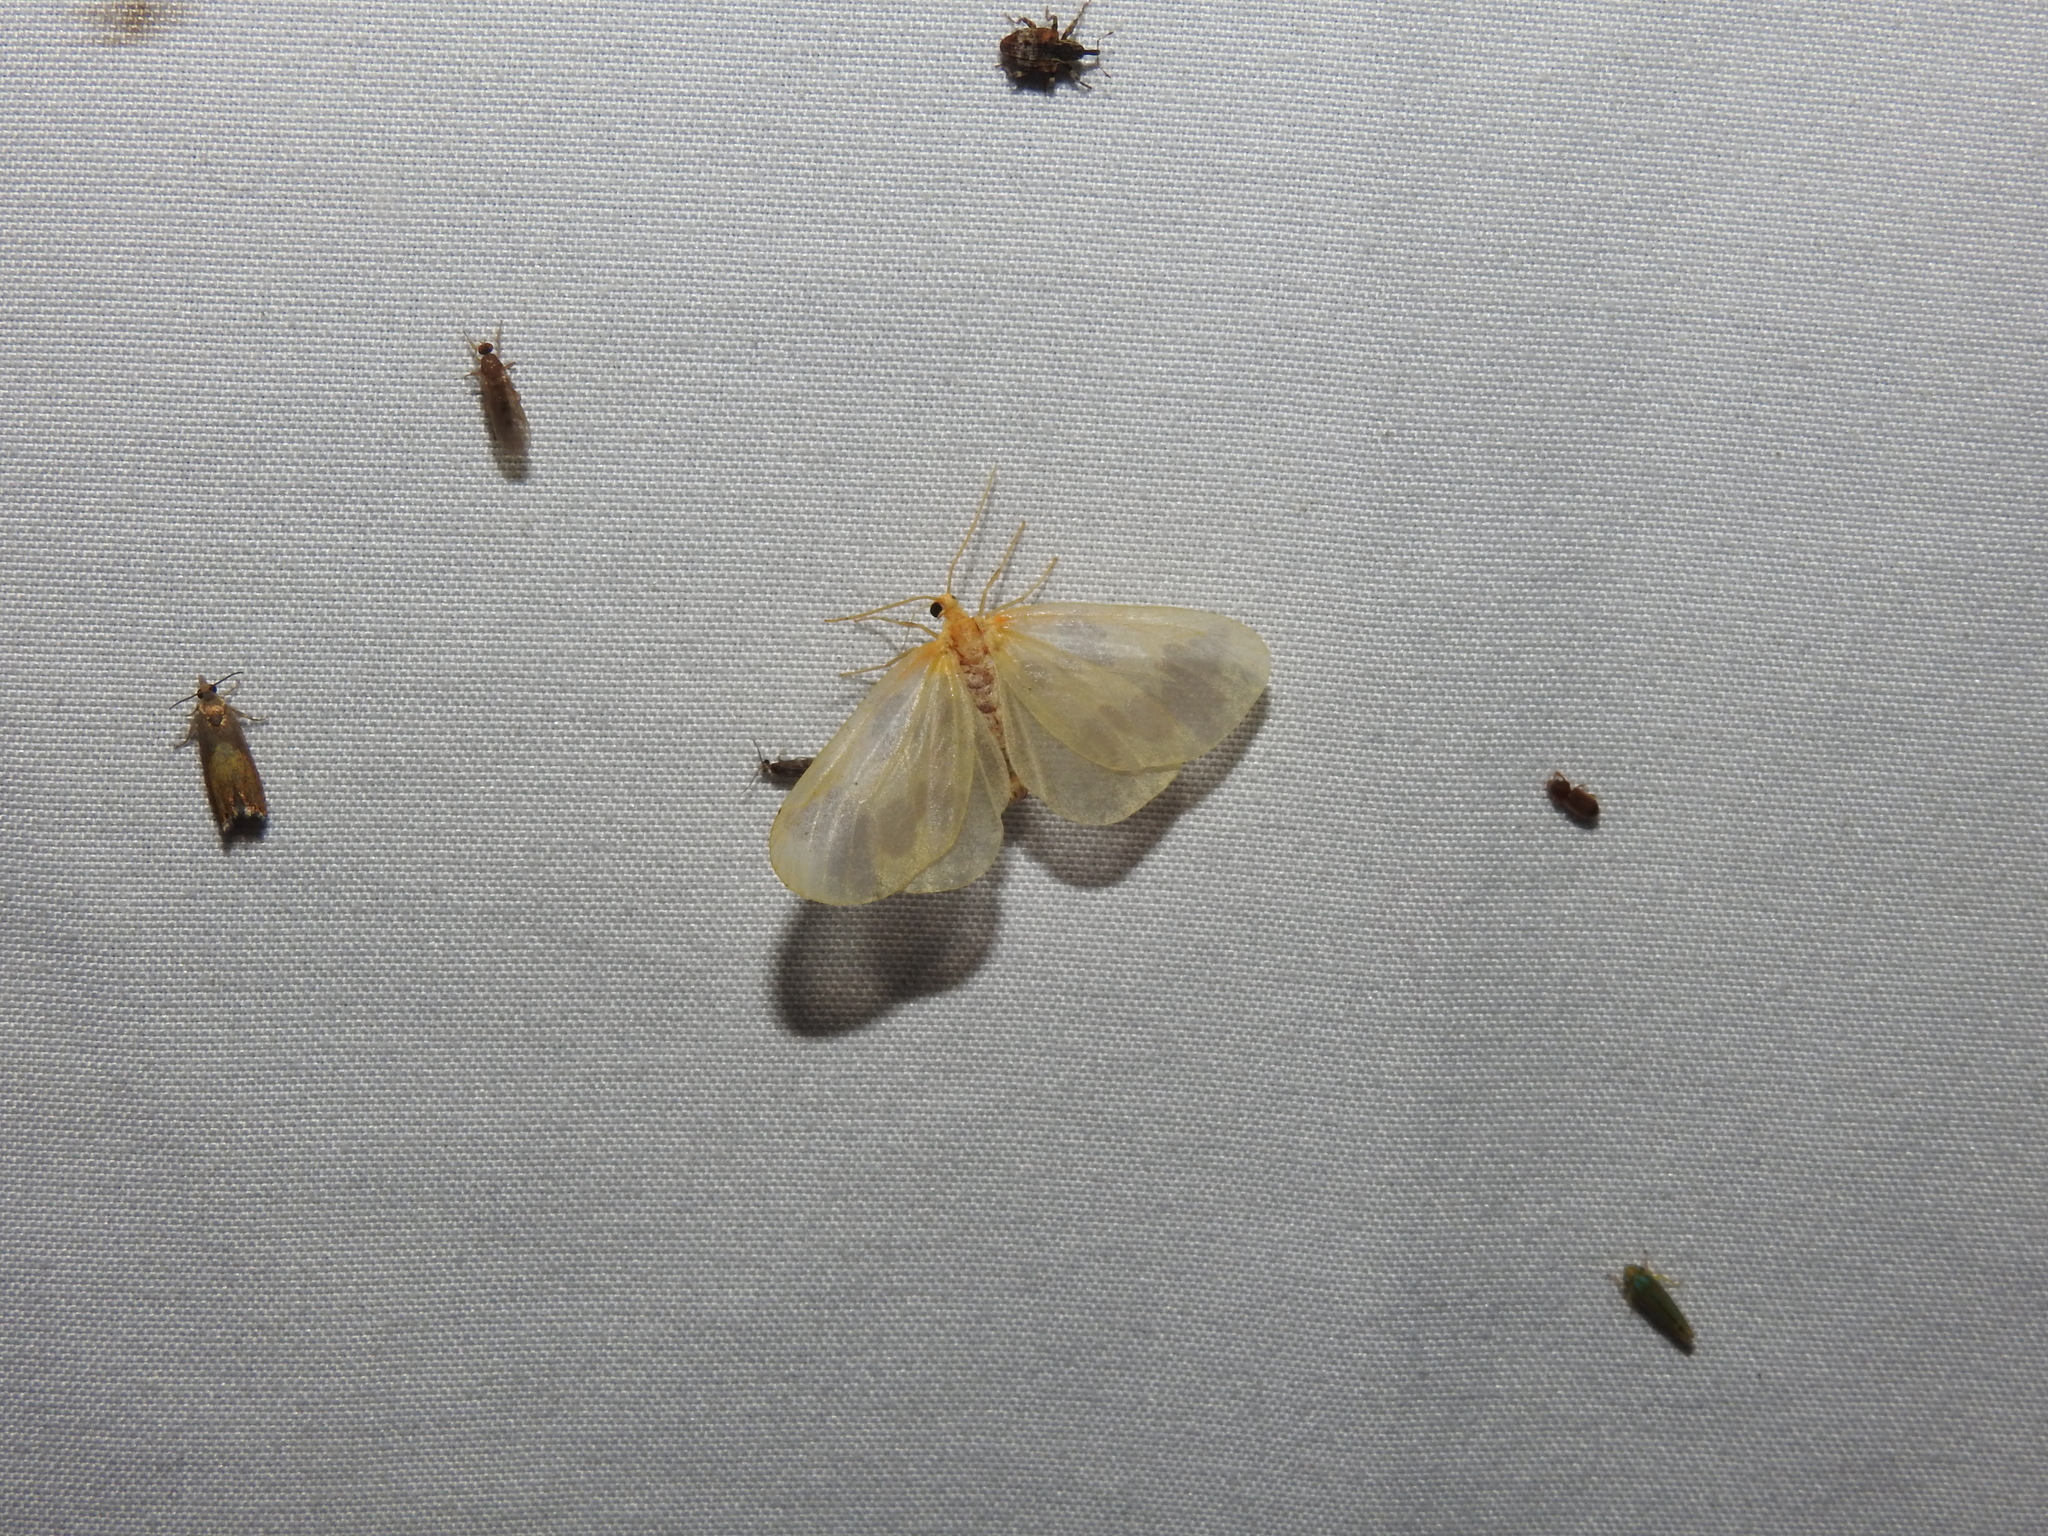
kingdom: Animalia
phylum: Arthropoda
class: Insecta
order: Lepidoptera
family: Geometridae
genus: Eubaphe
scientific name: Eubaphe mendica
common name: Beggar
